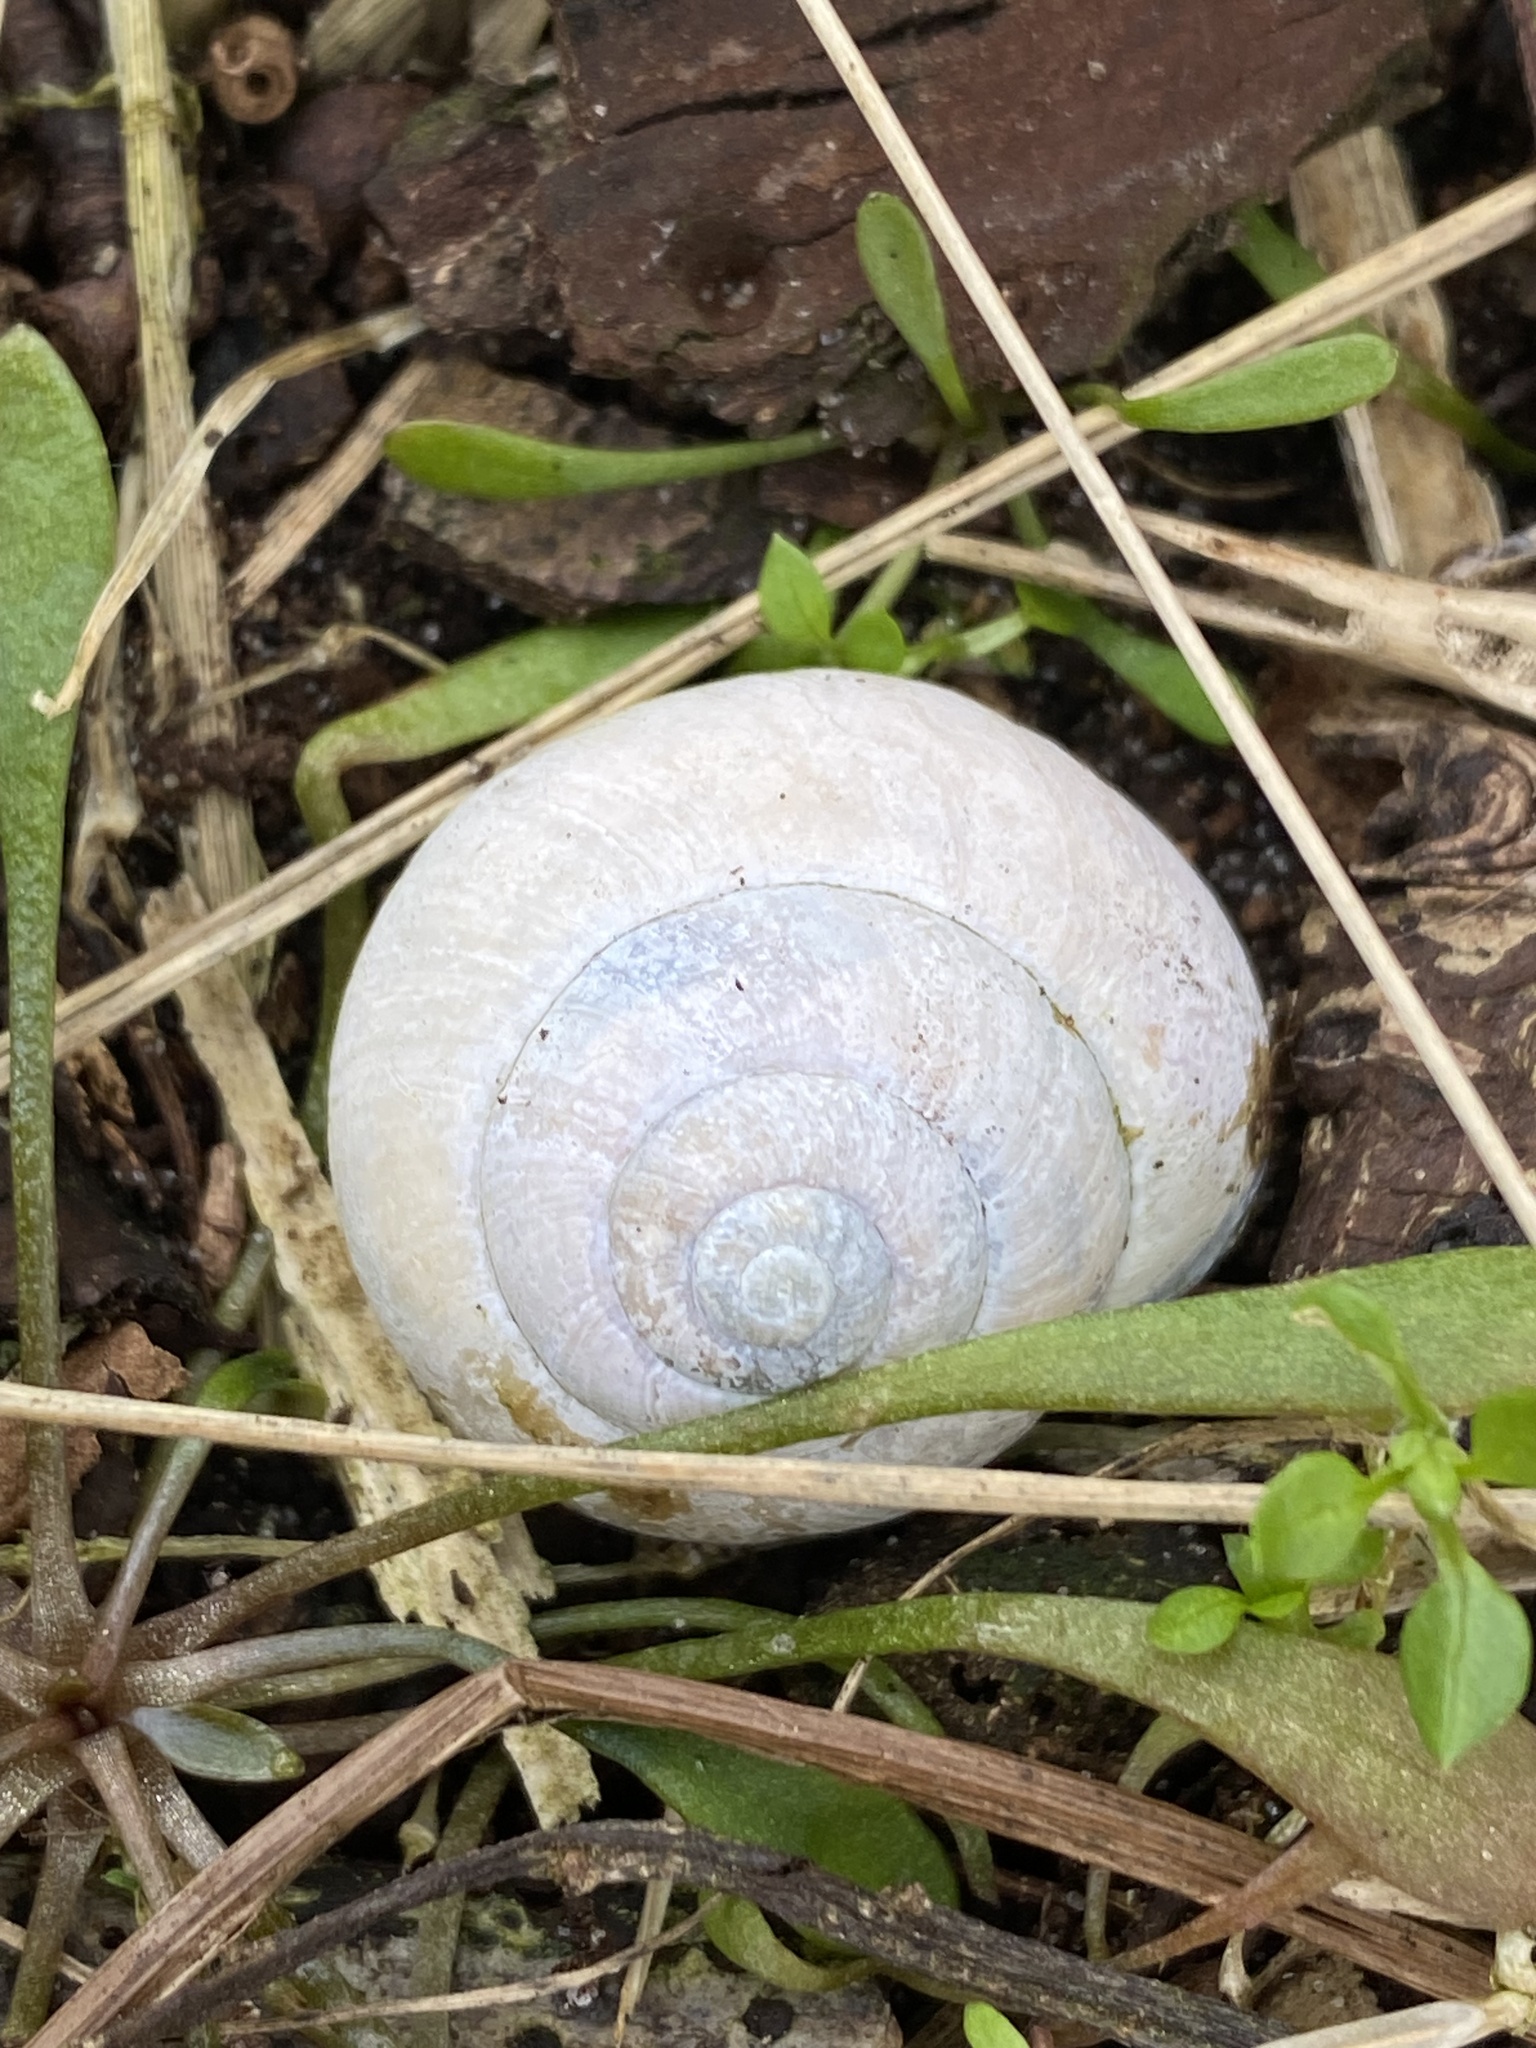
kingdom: Animalia
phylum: Mollusca
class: Gastropoda
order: Stylommatophora
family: Helicidae
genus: Cepaea
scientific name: Cepaea nemoralis
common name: Grovesnail
